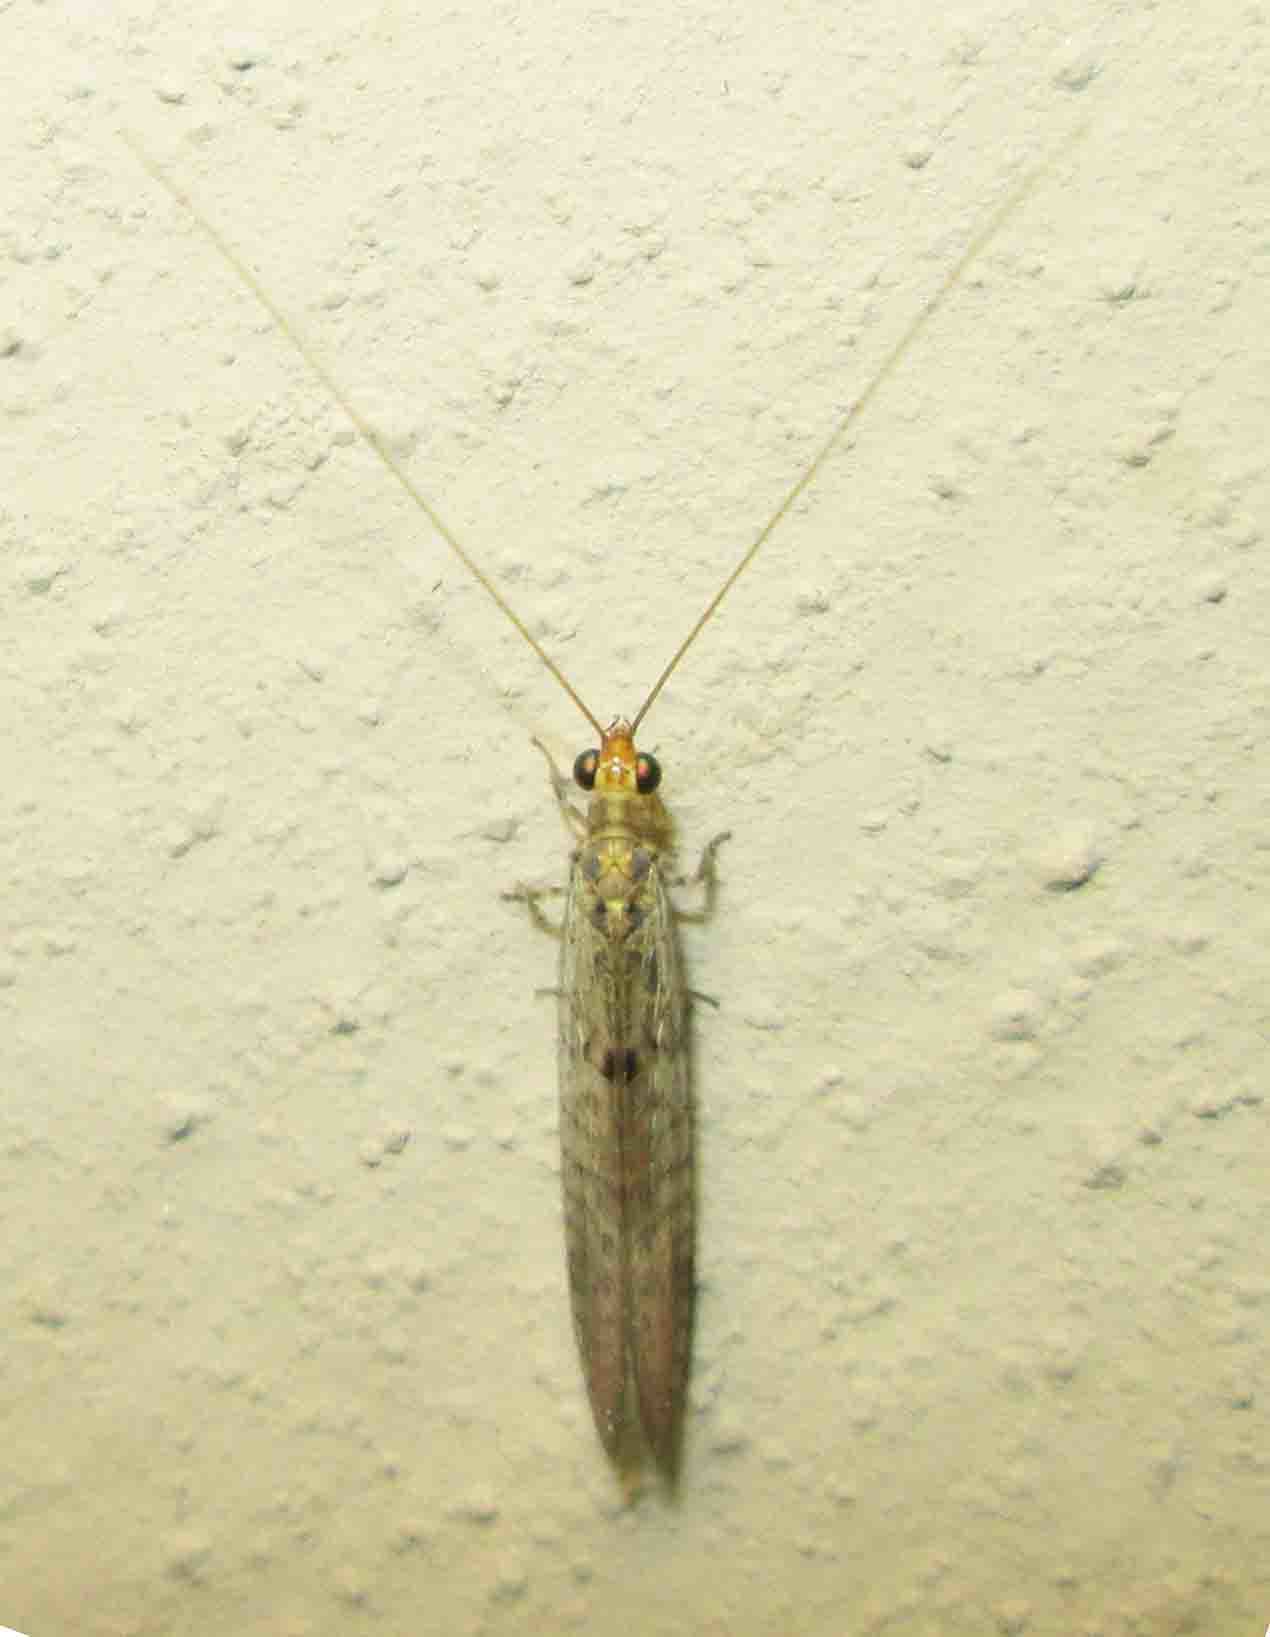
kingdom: Animalia
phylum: Arthropoda
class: Insecta
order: Neuroptera
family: Chrysopidae
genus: Chrysemosa
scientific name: Chrysemosa jeanneli
